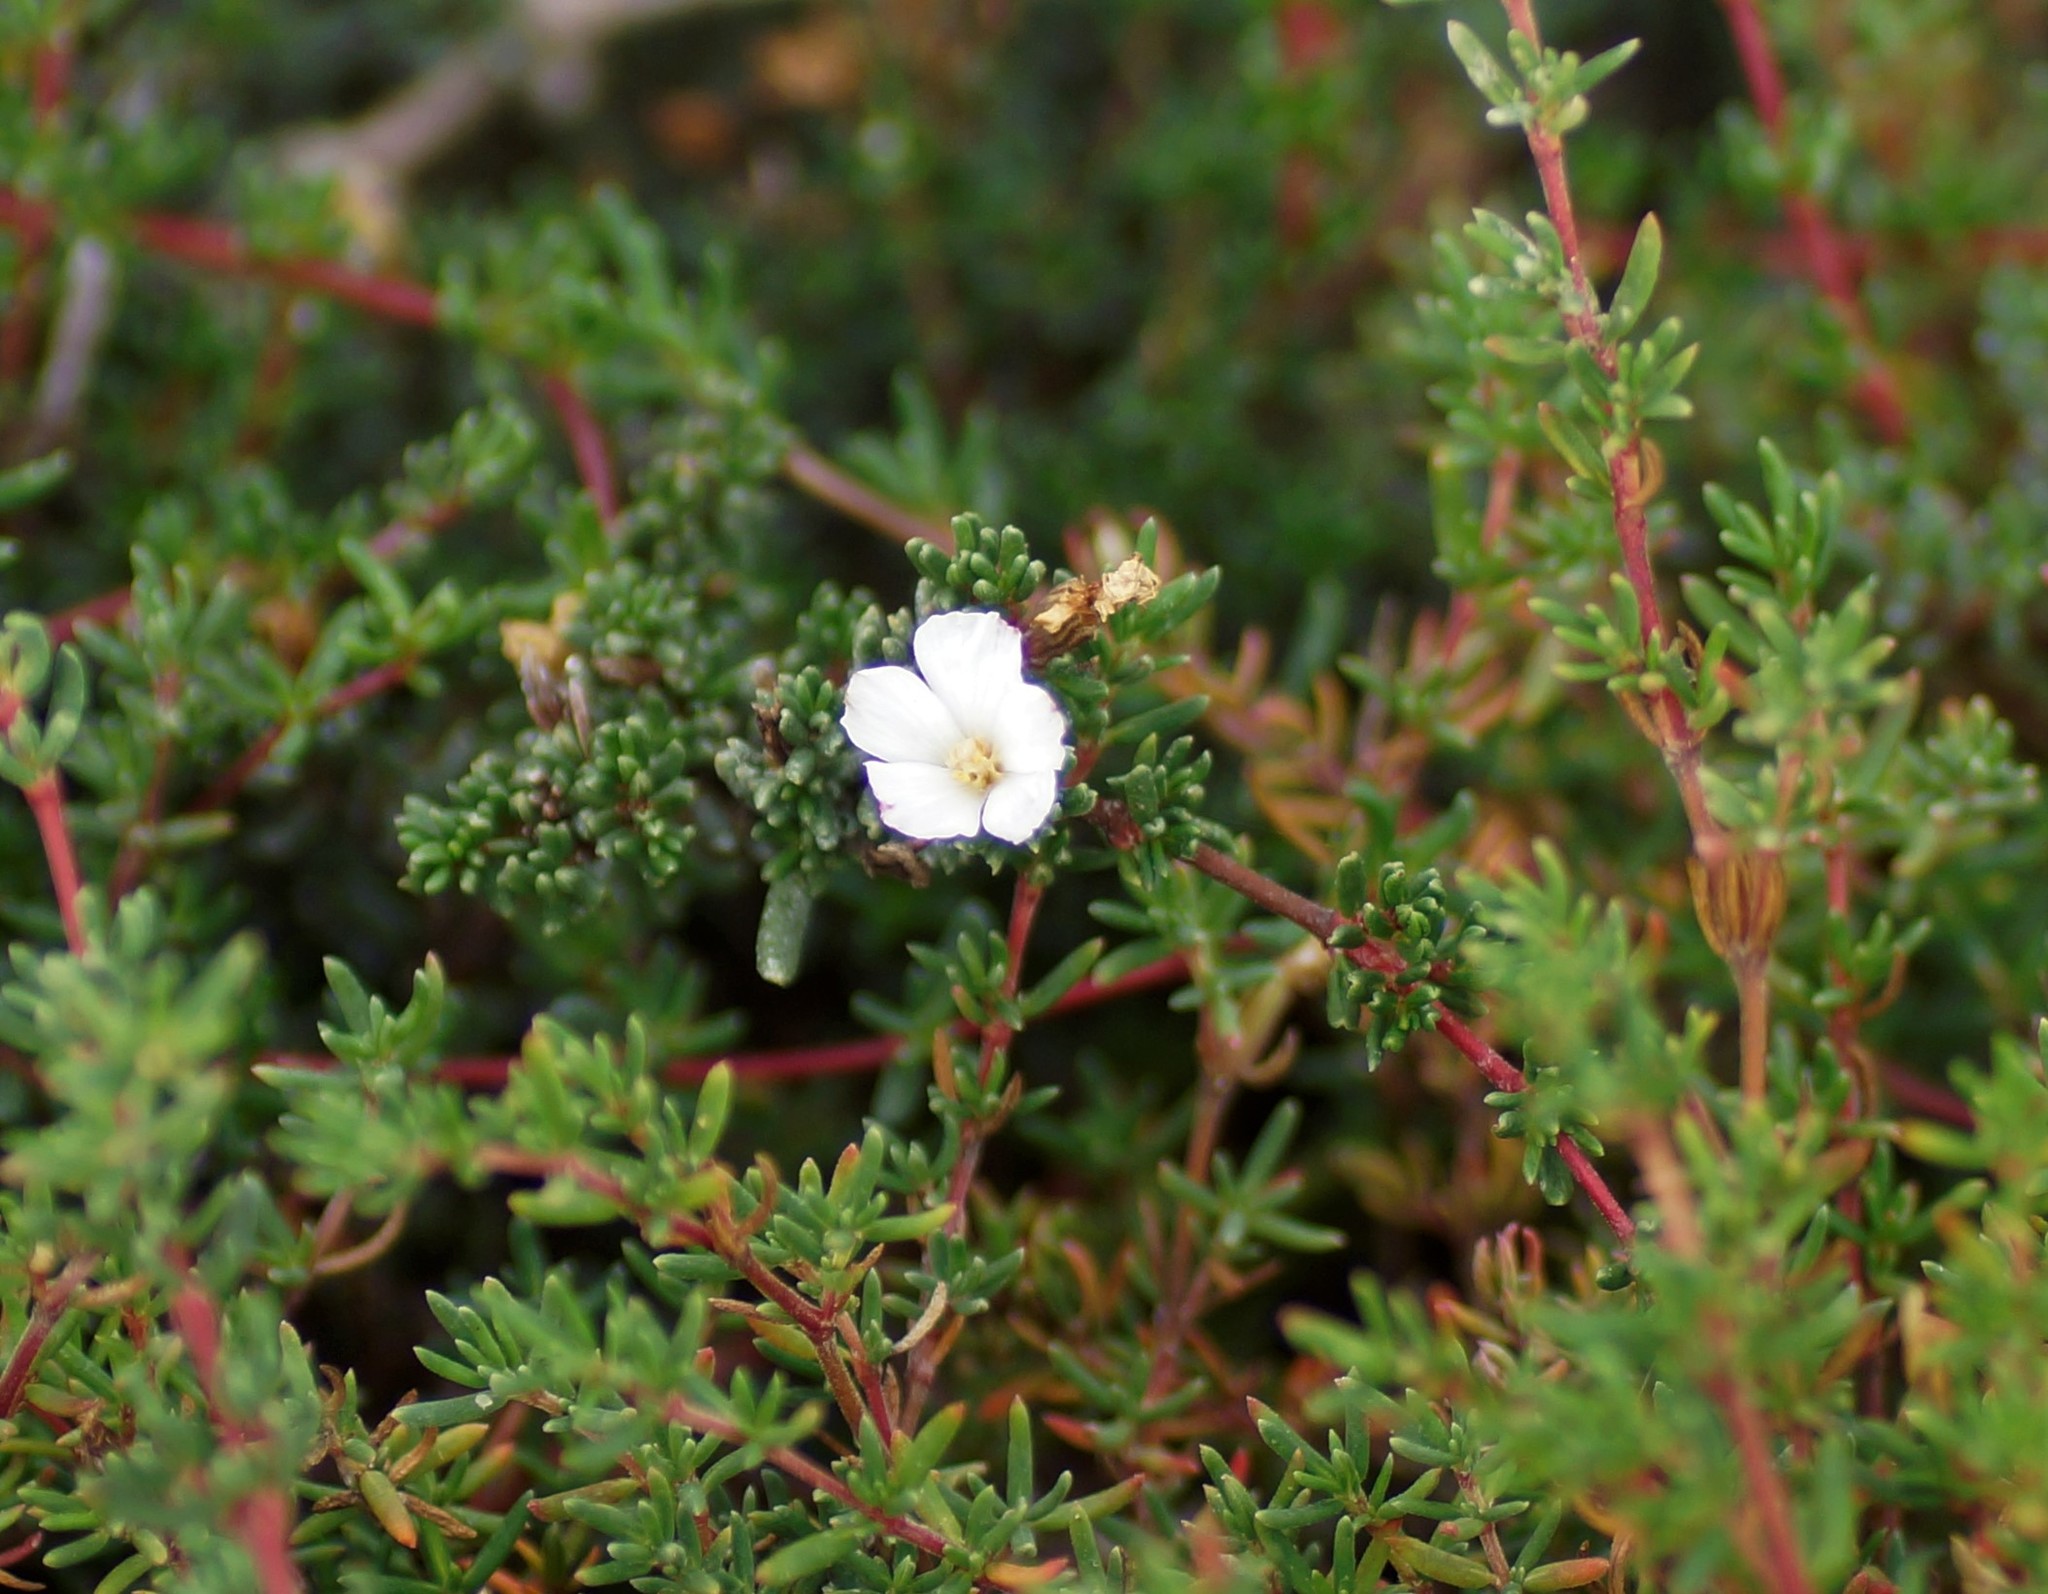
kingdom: Plantae
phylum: Tracheophyta
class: Magnoliopsida
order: Caryophyllales
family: Frankeniaceae
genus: Frankenia
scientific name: Frankenia pauciflora
